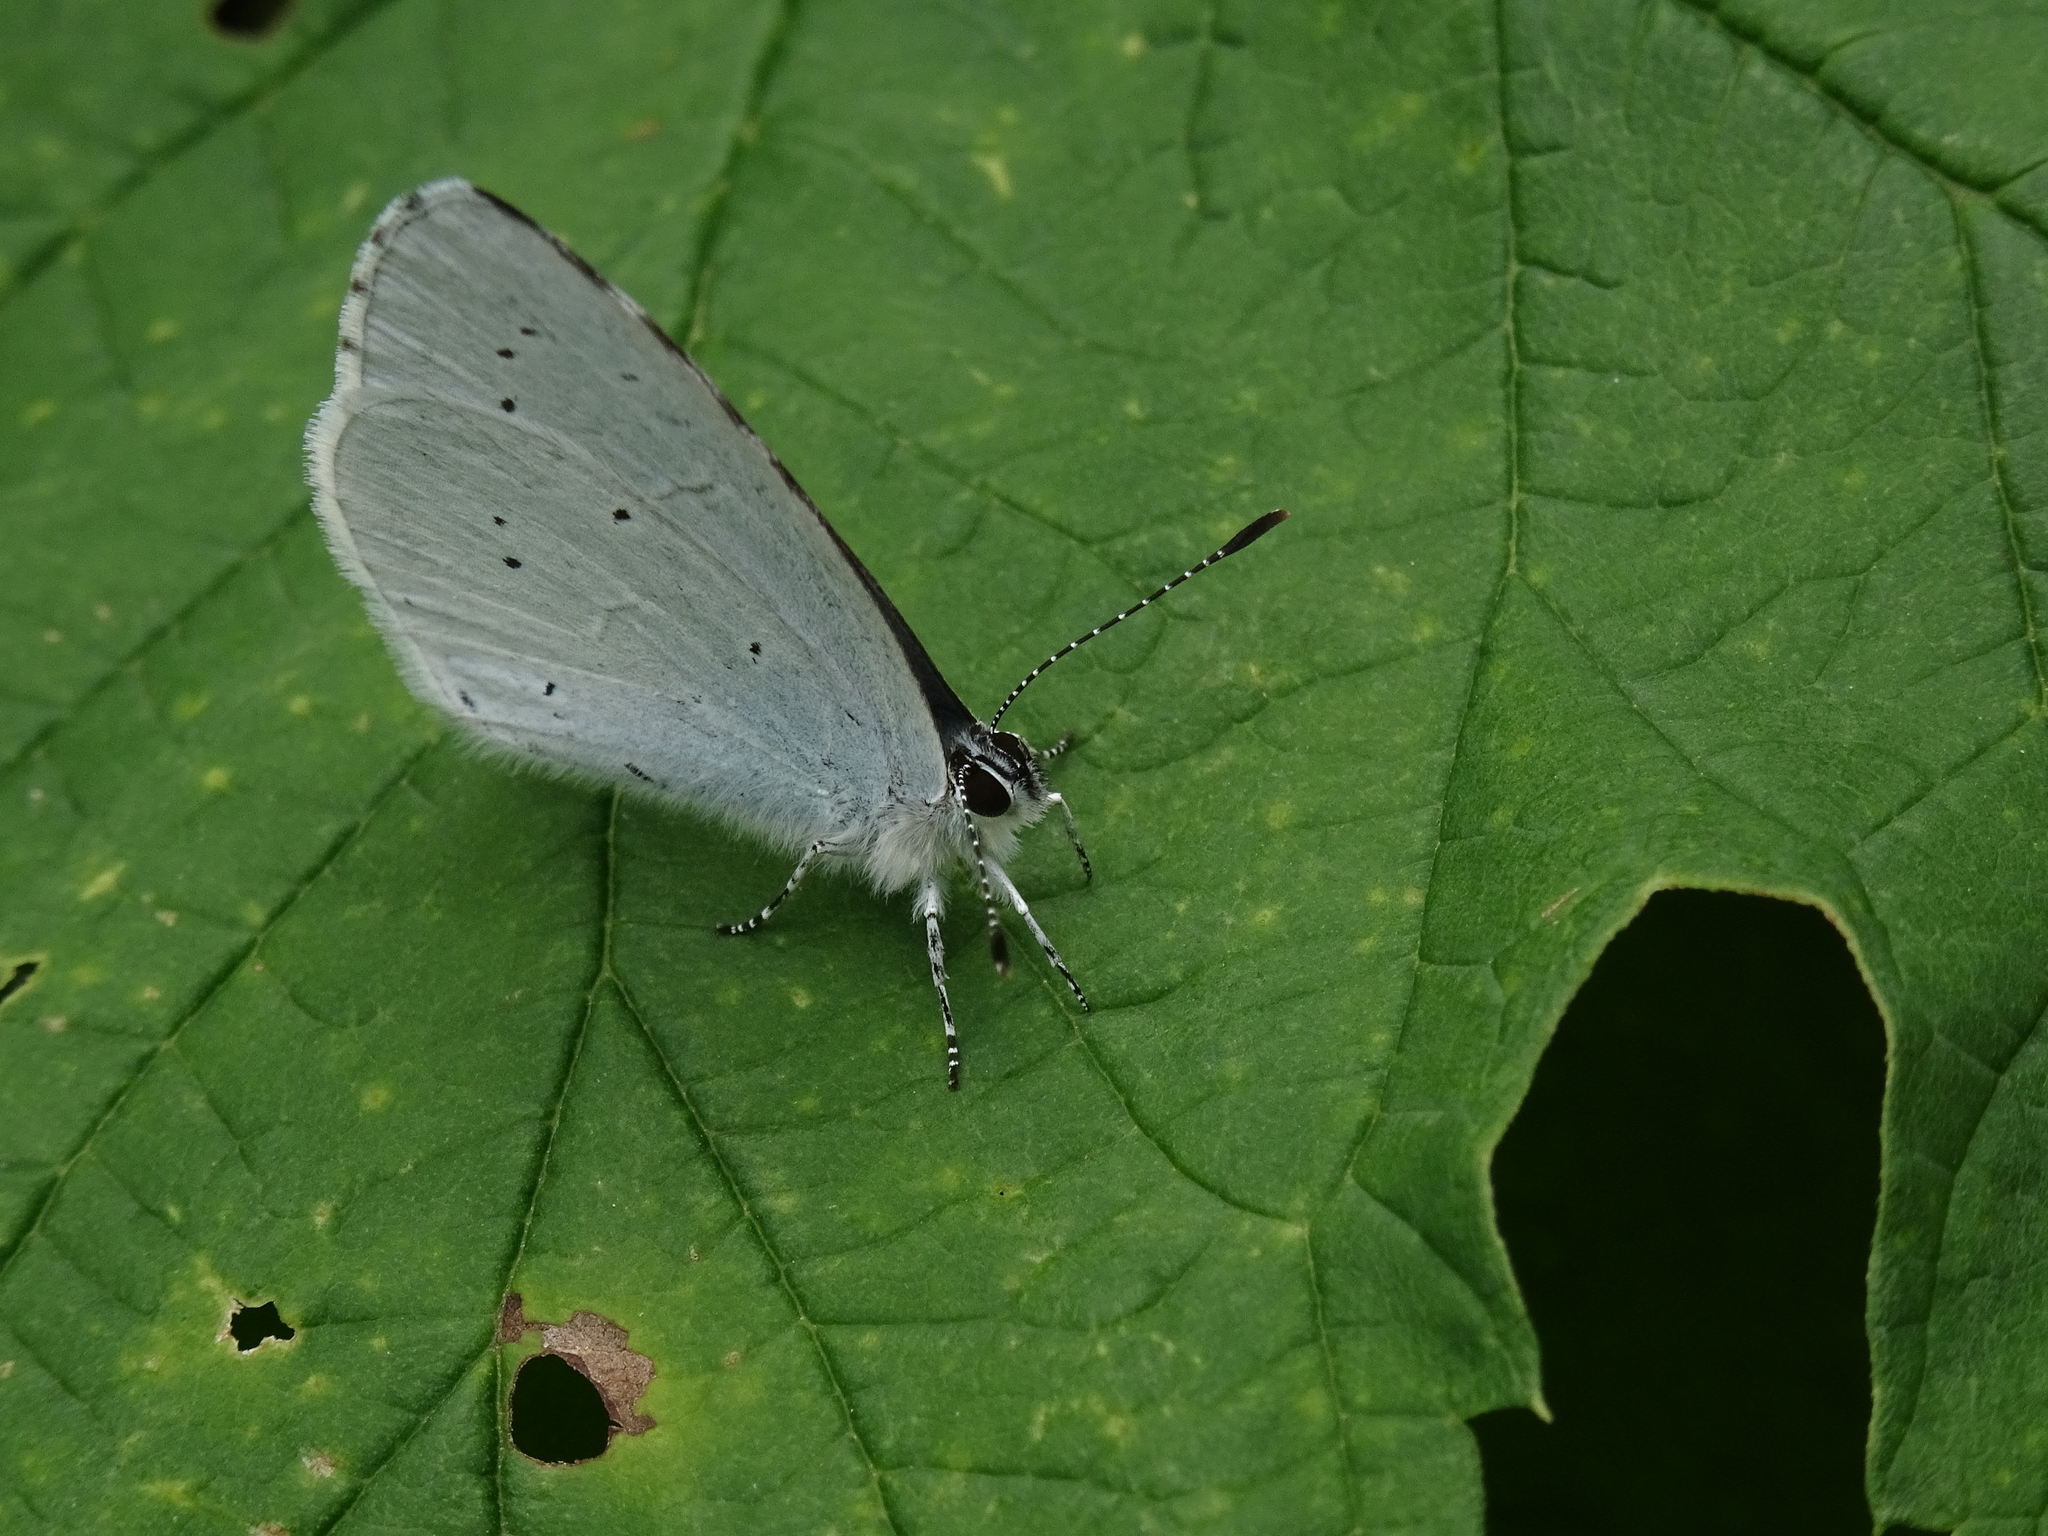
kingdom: Animalia
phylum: Arthropoda
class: Insecta
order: Lepidoptera
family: Lycaenidae
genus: Celastrina
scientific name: Celastrina argiolus
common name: Holly blue
